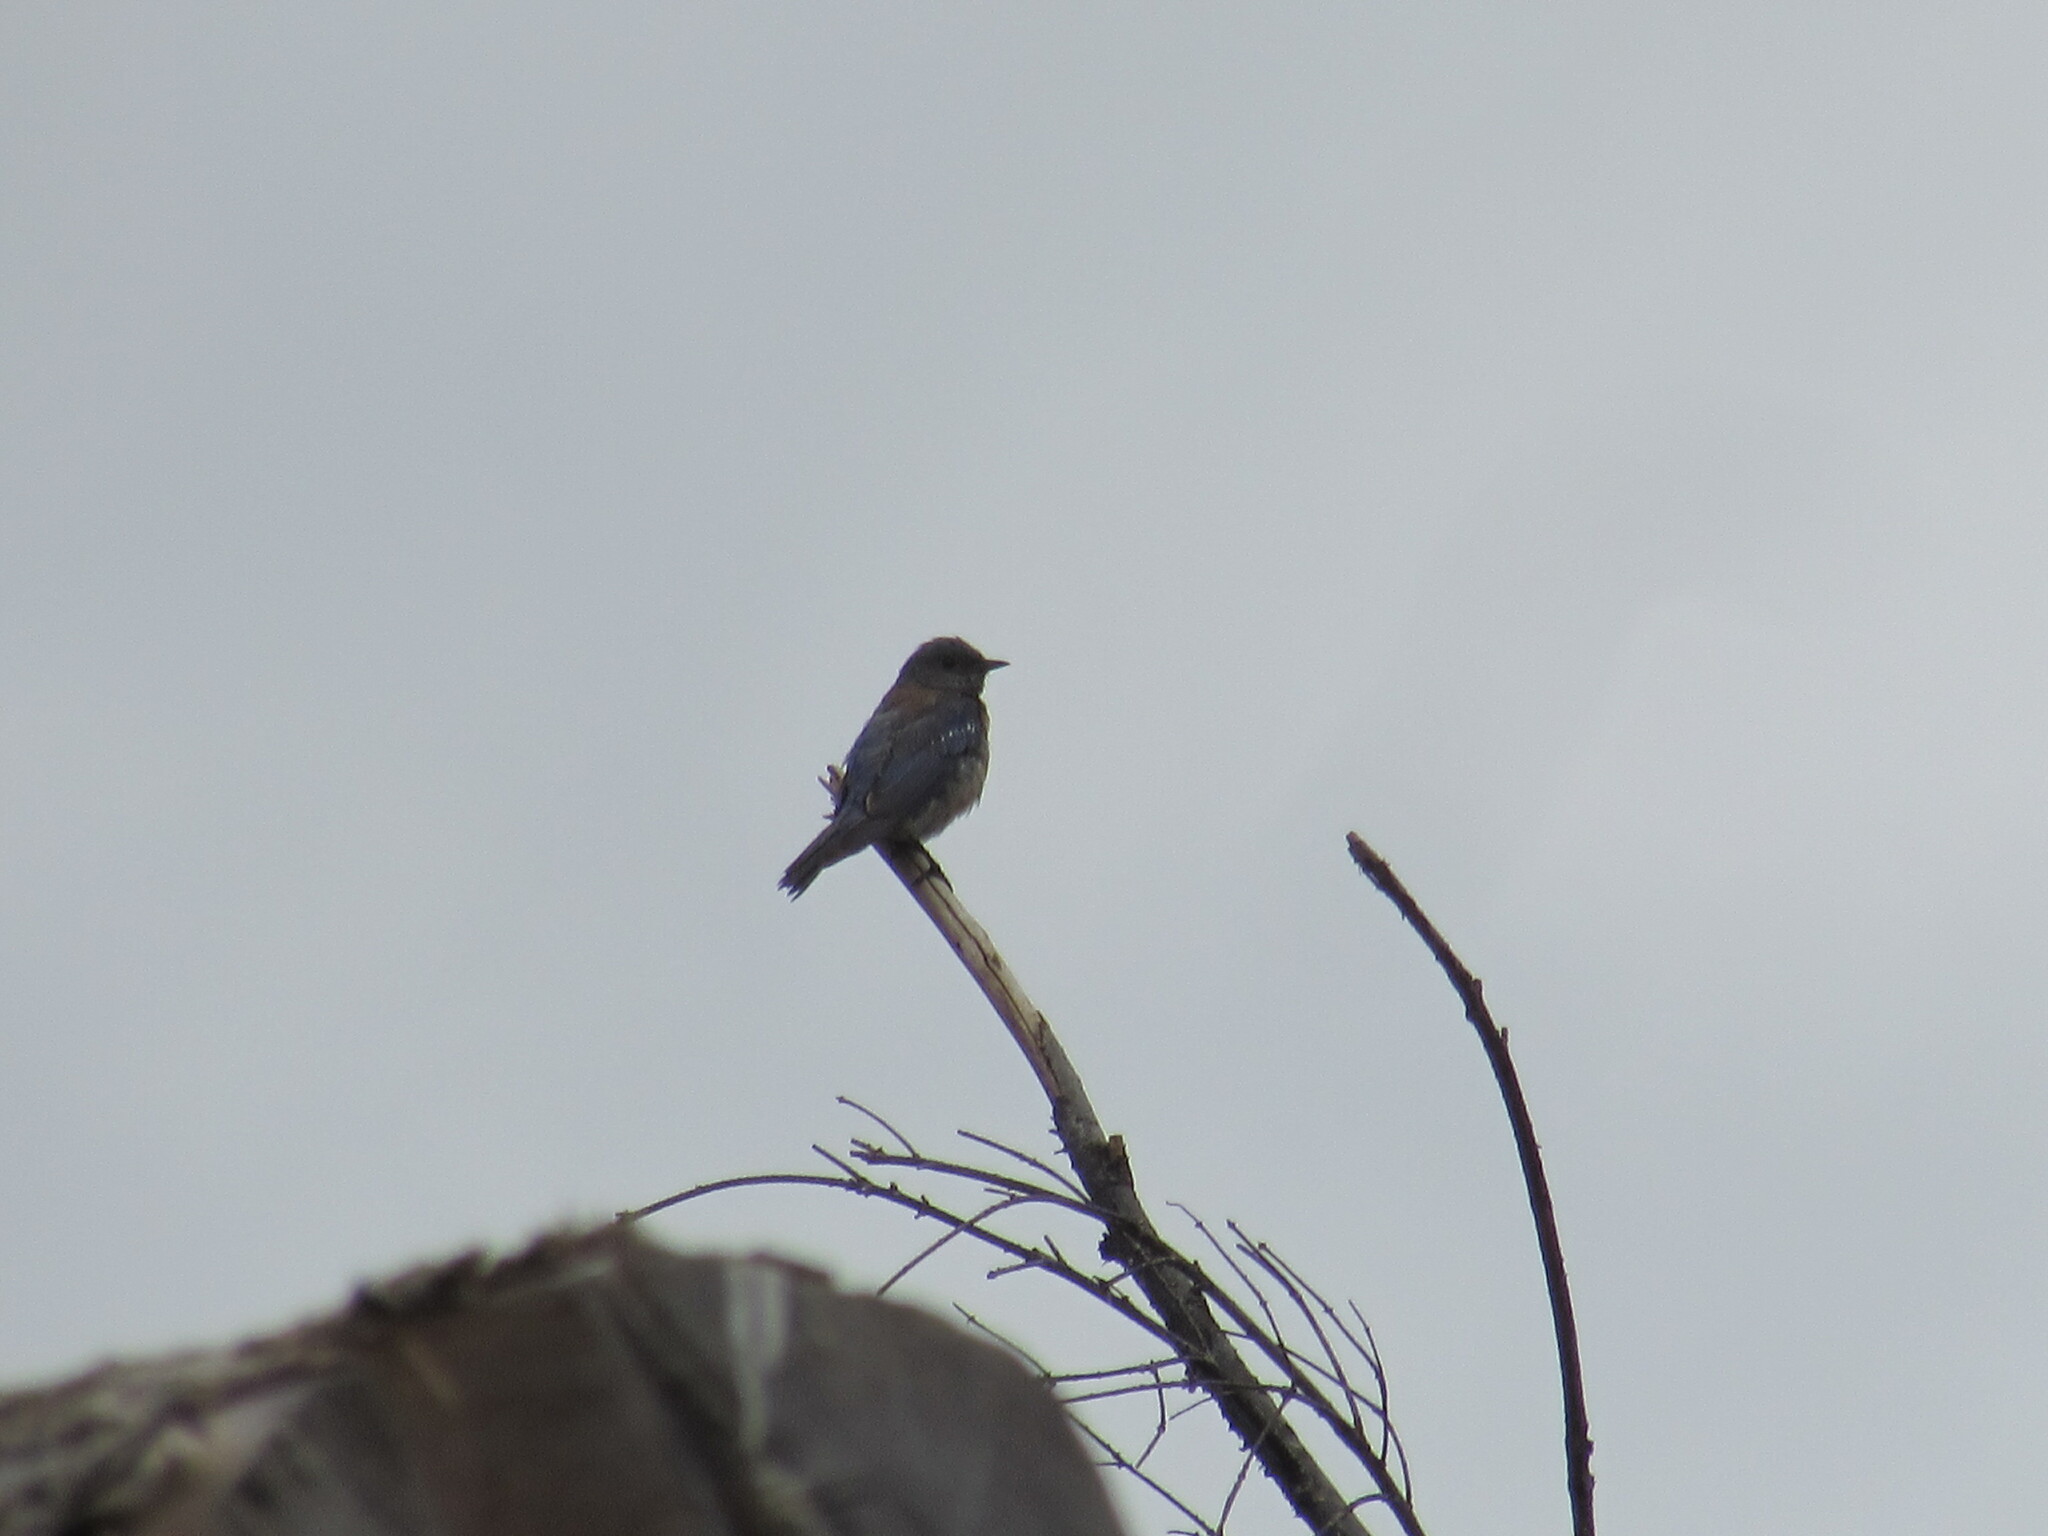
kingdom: Animalia
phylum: Chordata
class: Aves
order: Passeriformes
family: Turdidae
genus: Sialia
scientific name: Sialia mexicana
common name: Western bluebird
